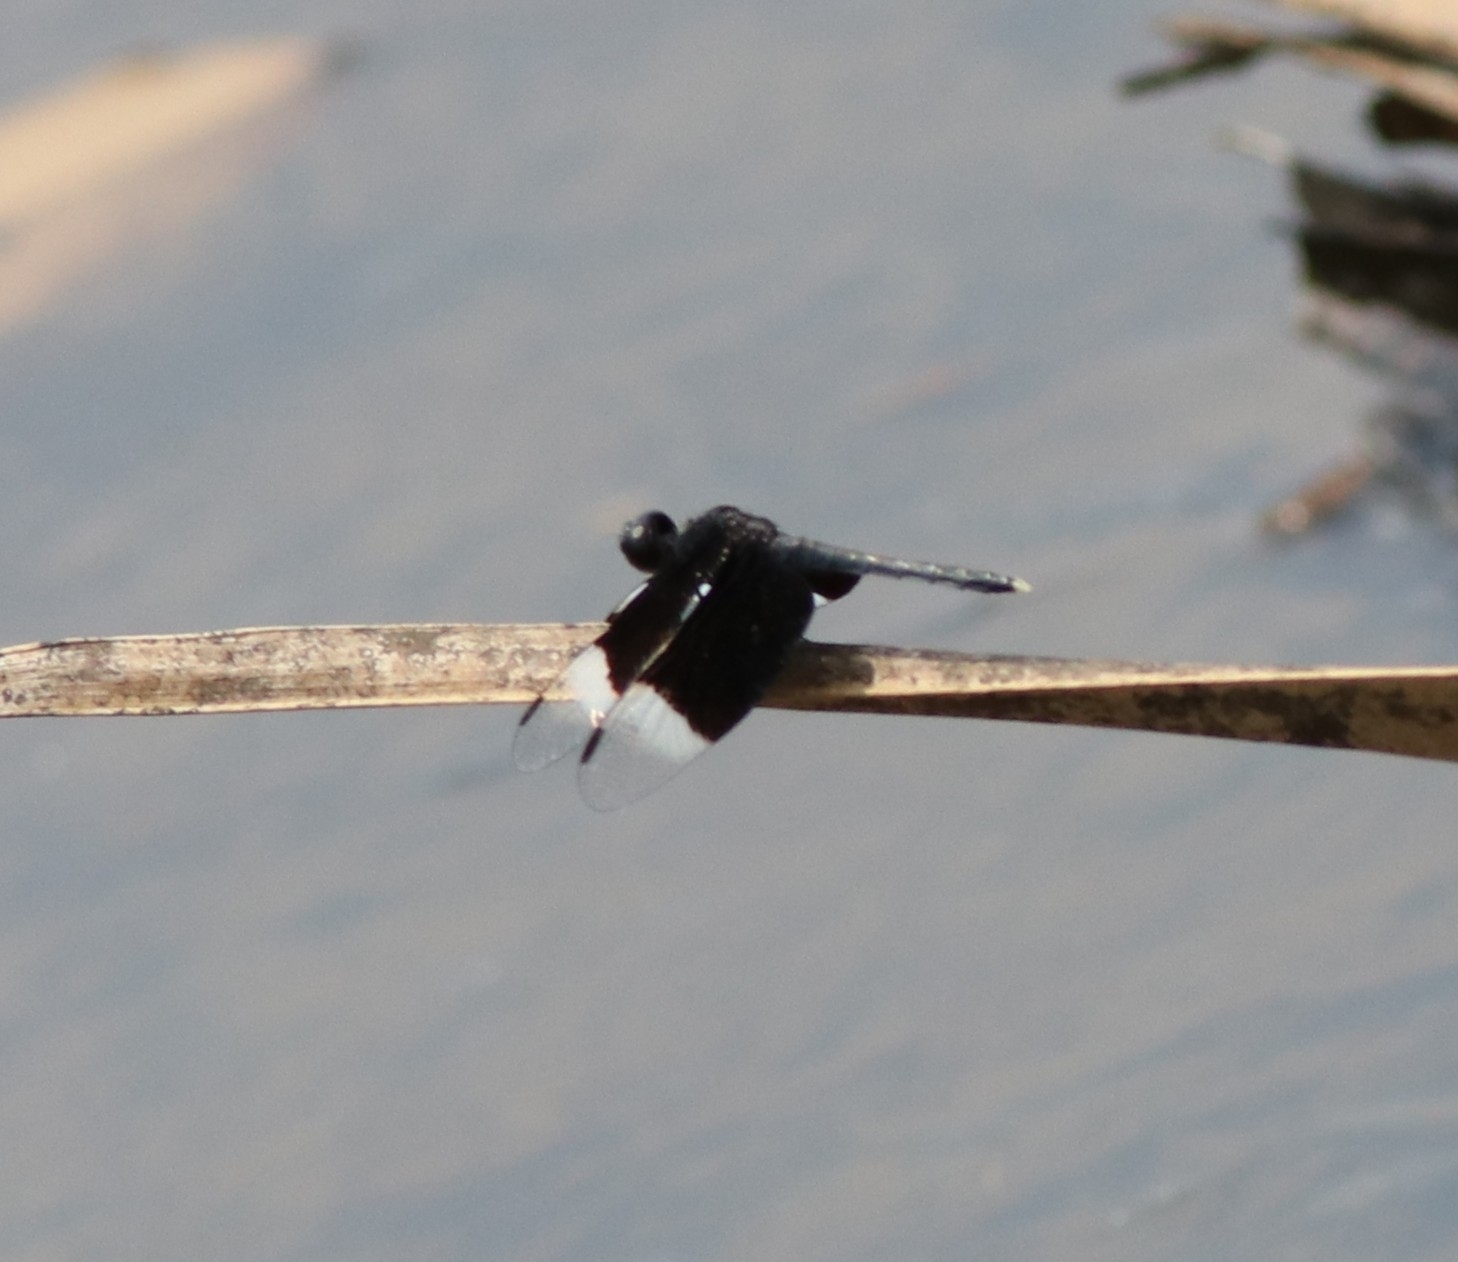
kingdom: Animalia
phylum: Arthropoda
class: Insecta
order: Odonata
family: Libellulidae
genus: Neurothemis
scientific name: Neurothemis tullia
